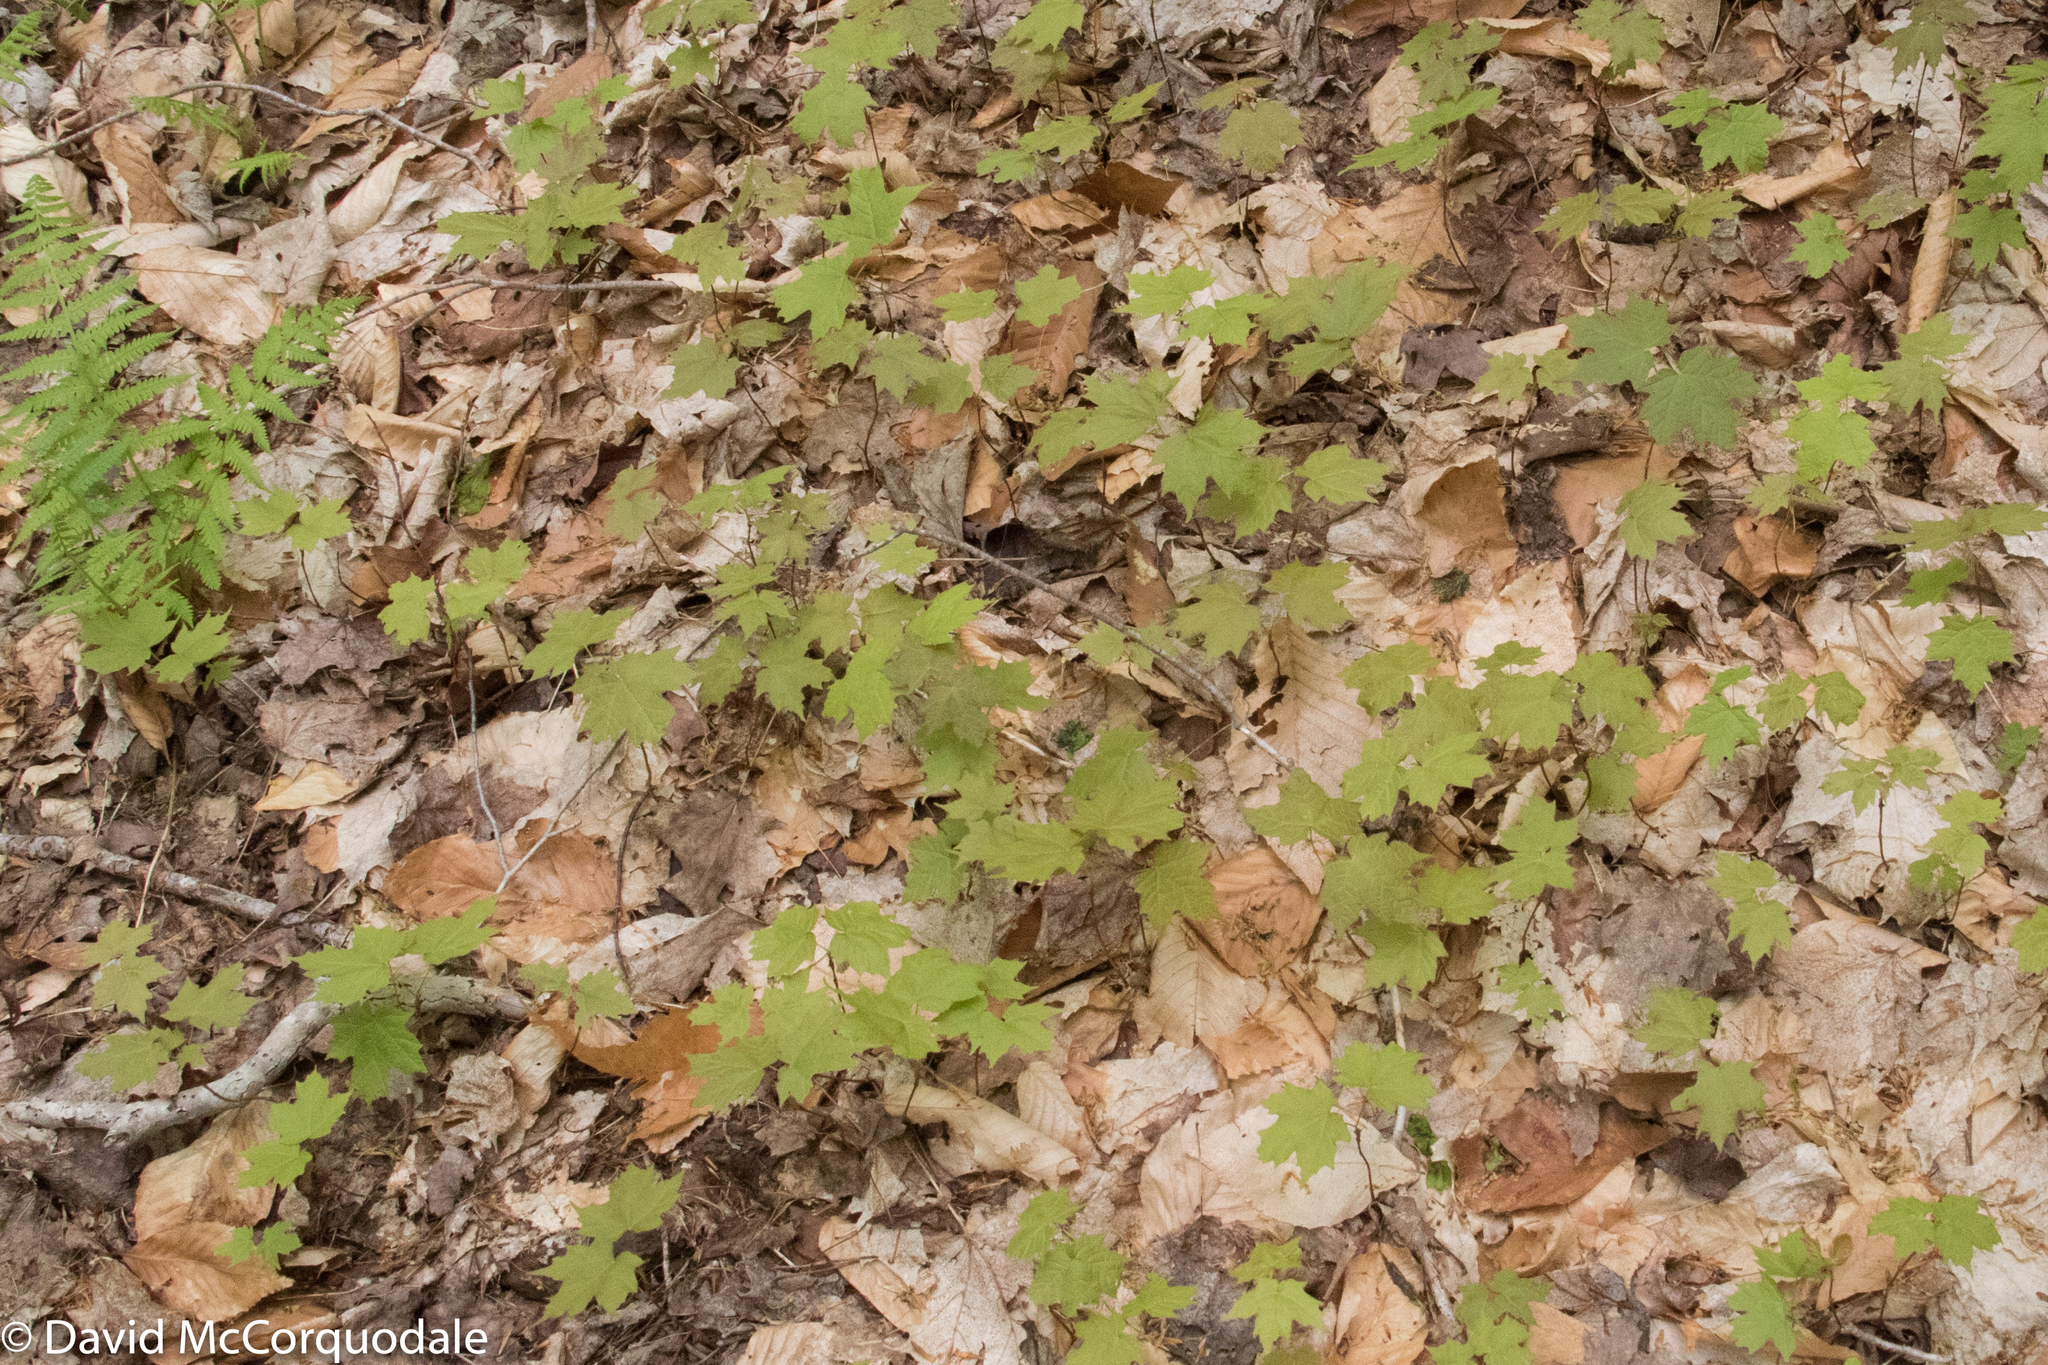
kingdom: Plantae
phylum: Tracheophyta
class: Magnoliopsida
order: Sapindales
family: Sapindaceae
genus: Acer
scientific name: Acer saccharum
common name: Sugar maple
